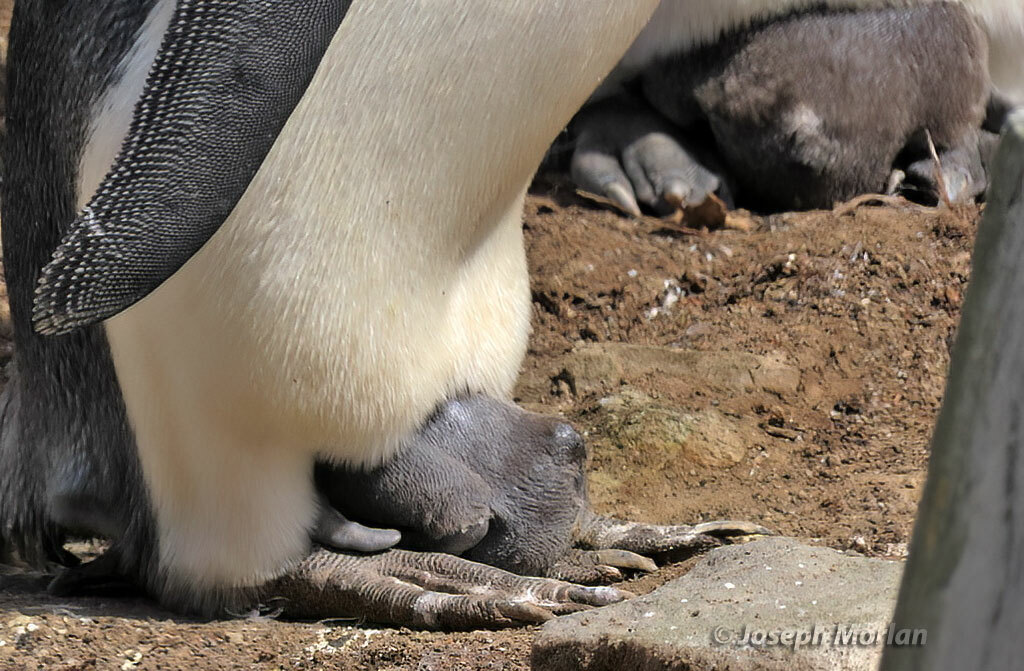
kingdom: Animalia
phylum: Chordata
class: Aves
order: Sphenisciformes
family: Spheniscidae
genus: Aptenodytes
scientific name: Aptenodytes patagonicus
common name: King penguin
